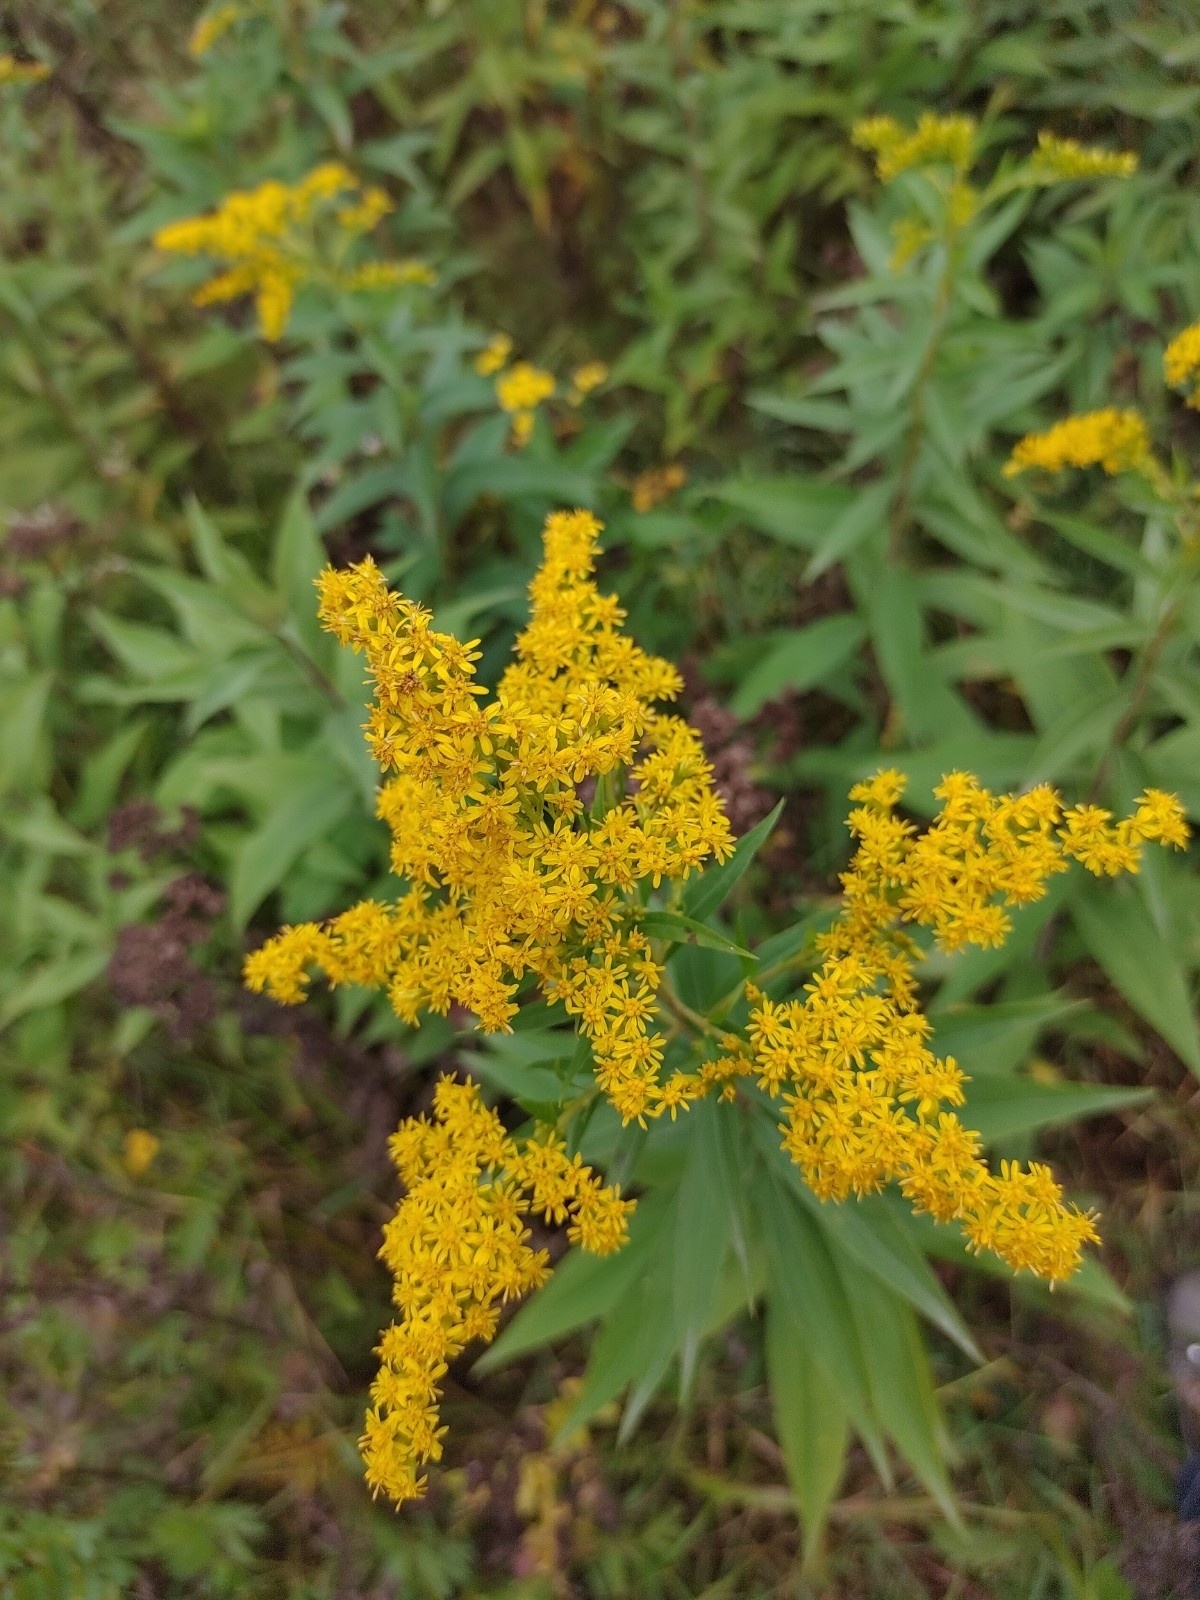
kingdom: Plantae
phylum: Tracheophyta
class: Magnoliopsida
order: Asterales
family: Asteraceae
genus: Solidago
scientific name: Solidago canadensis
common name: Canada goldenrod
